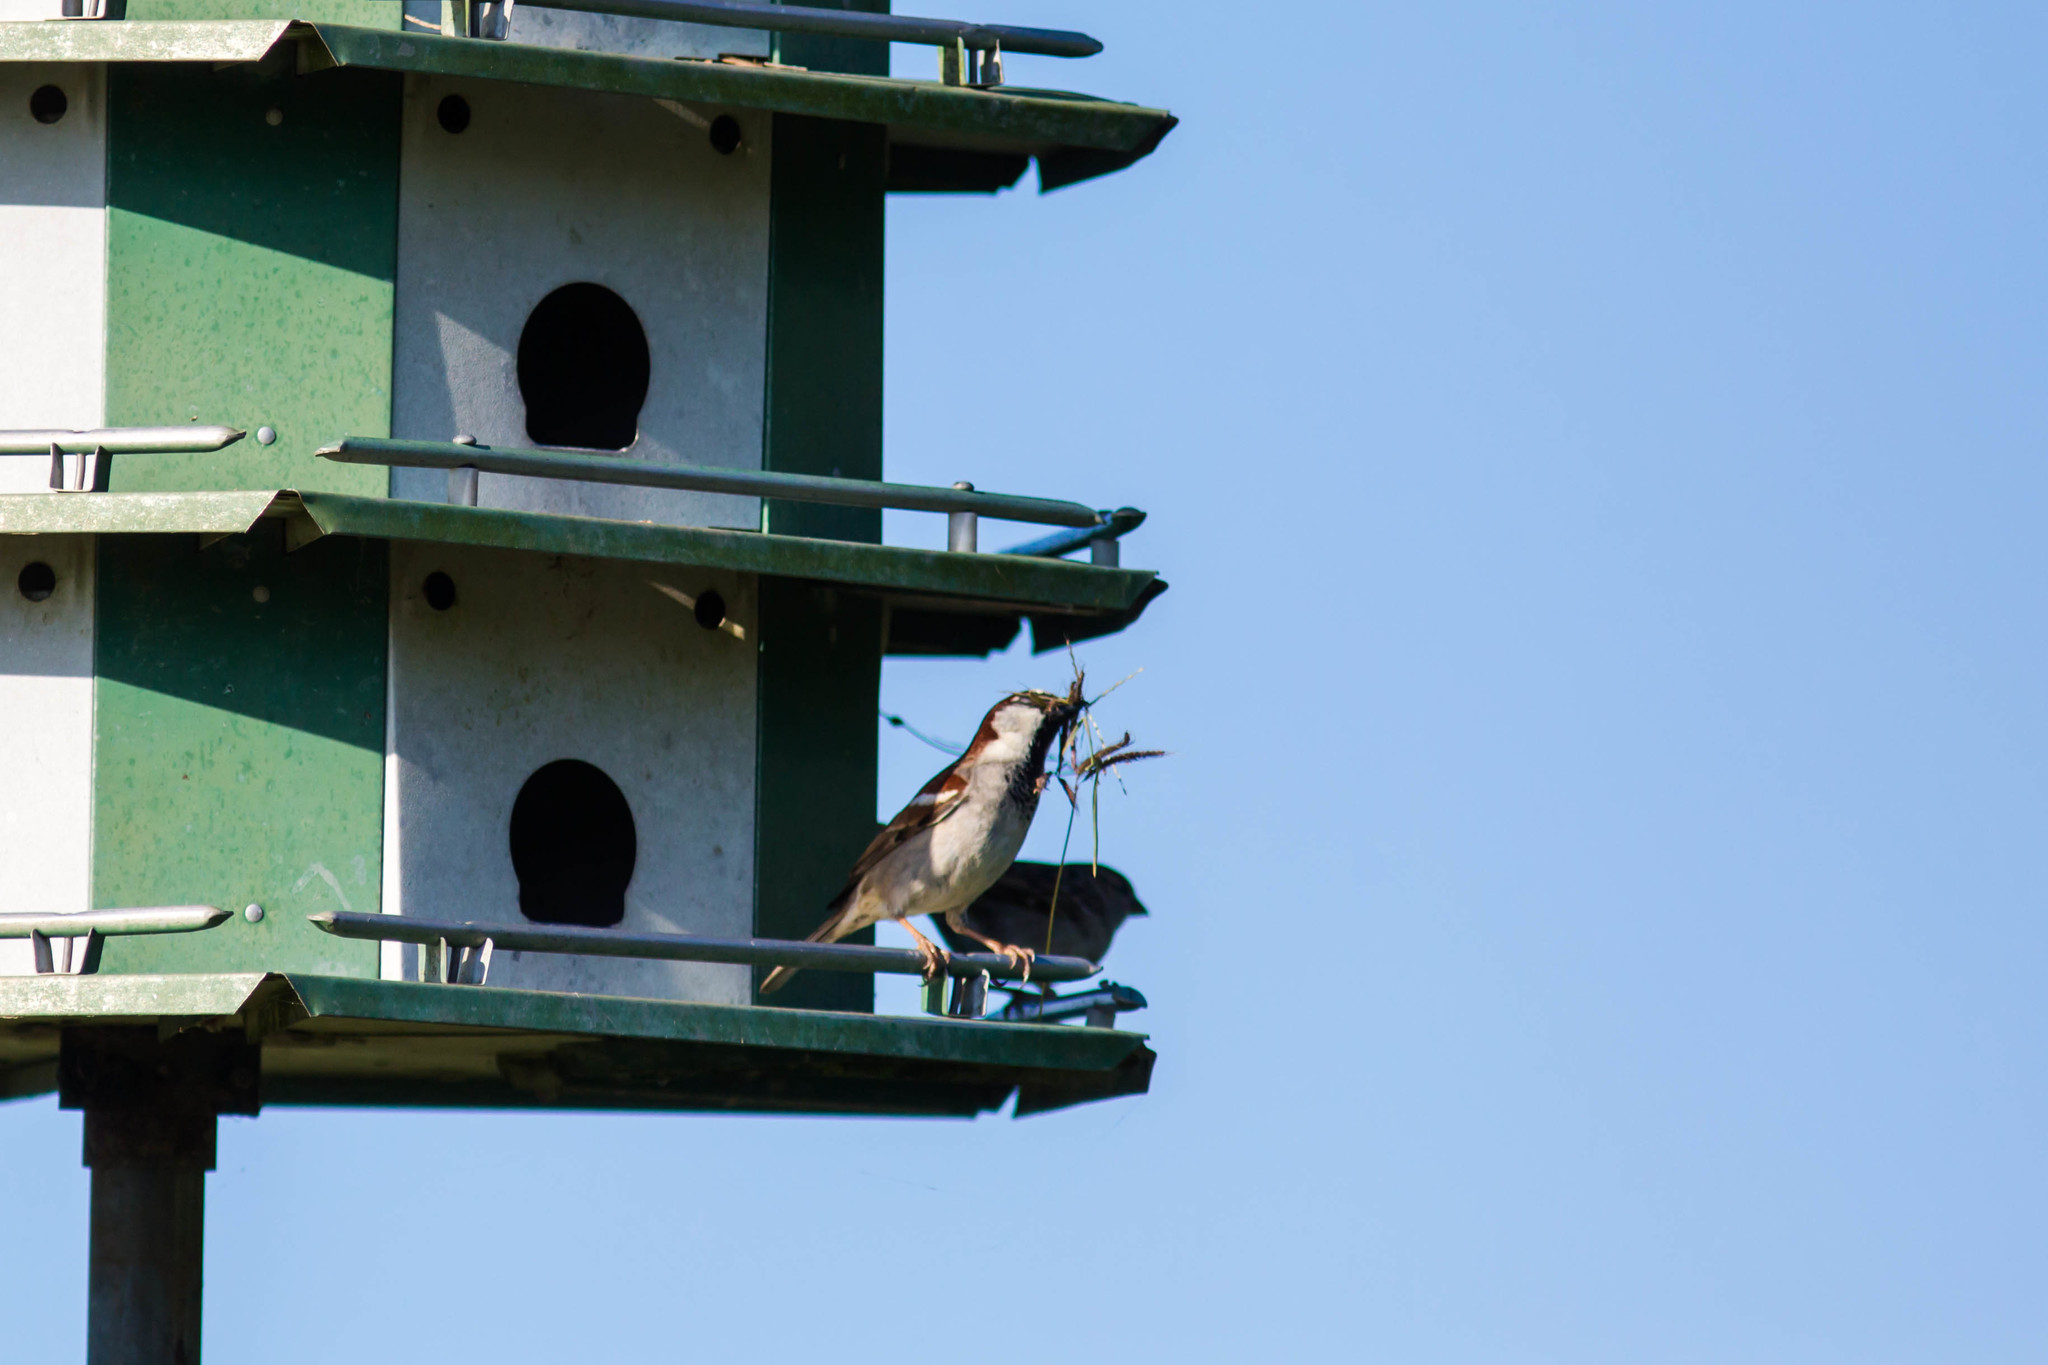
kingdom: Animalia
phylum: Chordata
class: Aves
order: Passeriformes
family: Passeridae
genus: Passer
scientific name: Passer domesticus
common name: House sparrow
